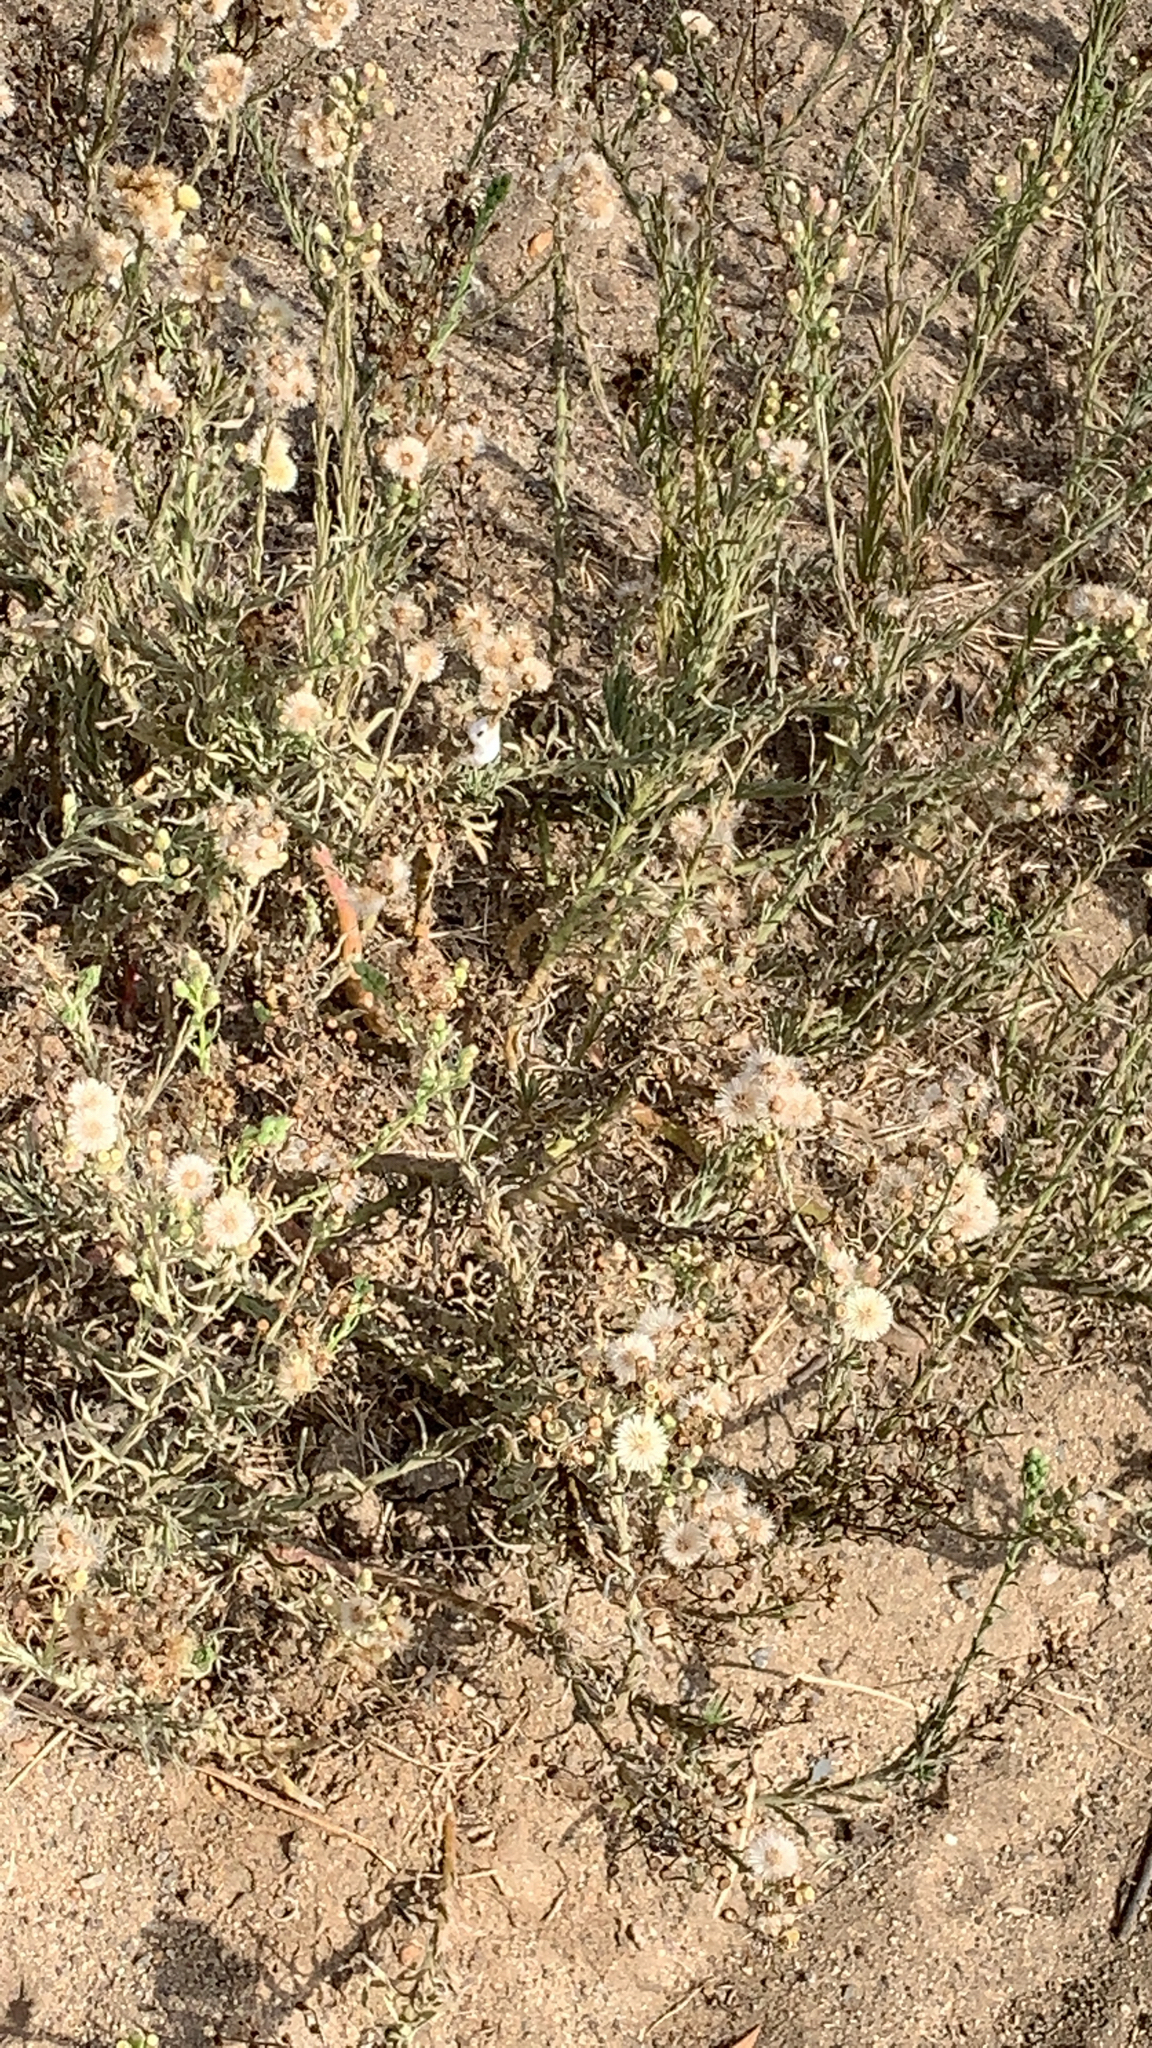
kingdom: Plantae
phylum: Tracheophyta
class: Magnoliopsida
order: Asterales
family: Asteraceae
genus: Erigeron
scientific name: Erigeron bonariensis
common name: Argentine fleabane
